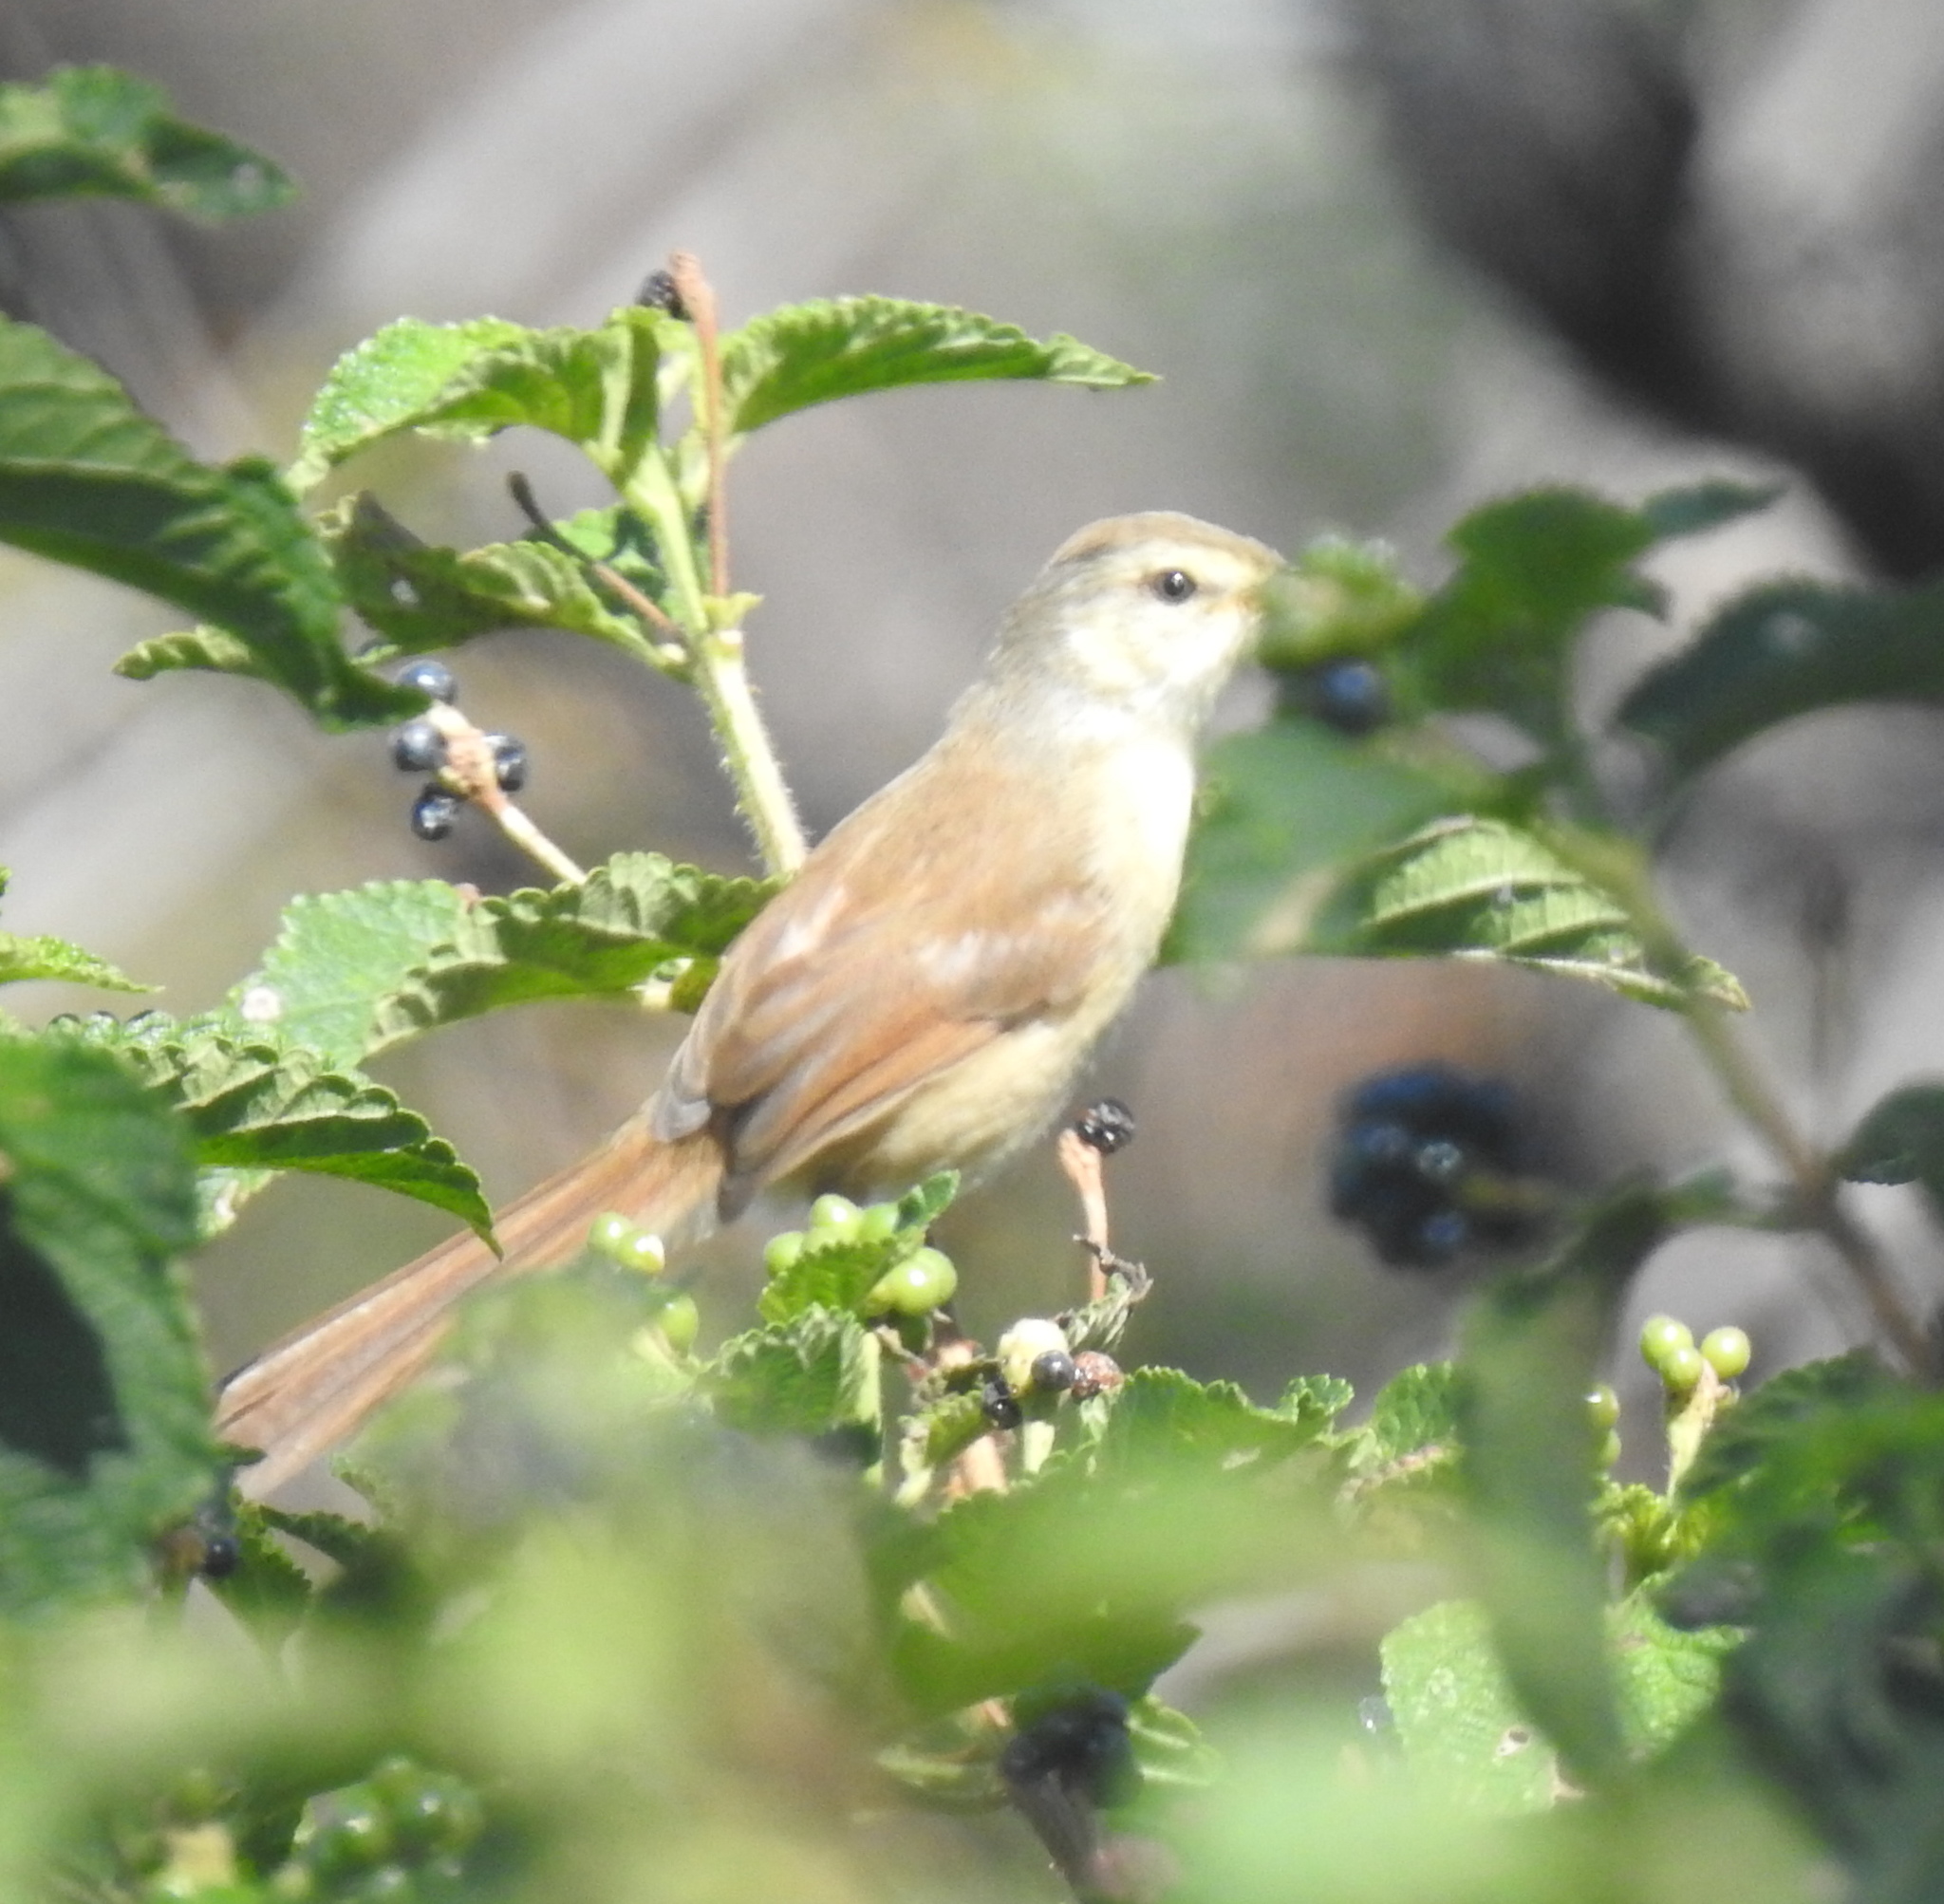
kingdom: Animalia
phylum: Chordata
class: Aves
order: Passeriformes
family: Cisticolidae
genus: Prinia
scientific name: Prinia subflava
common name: Tawny-flanked prinia
